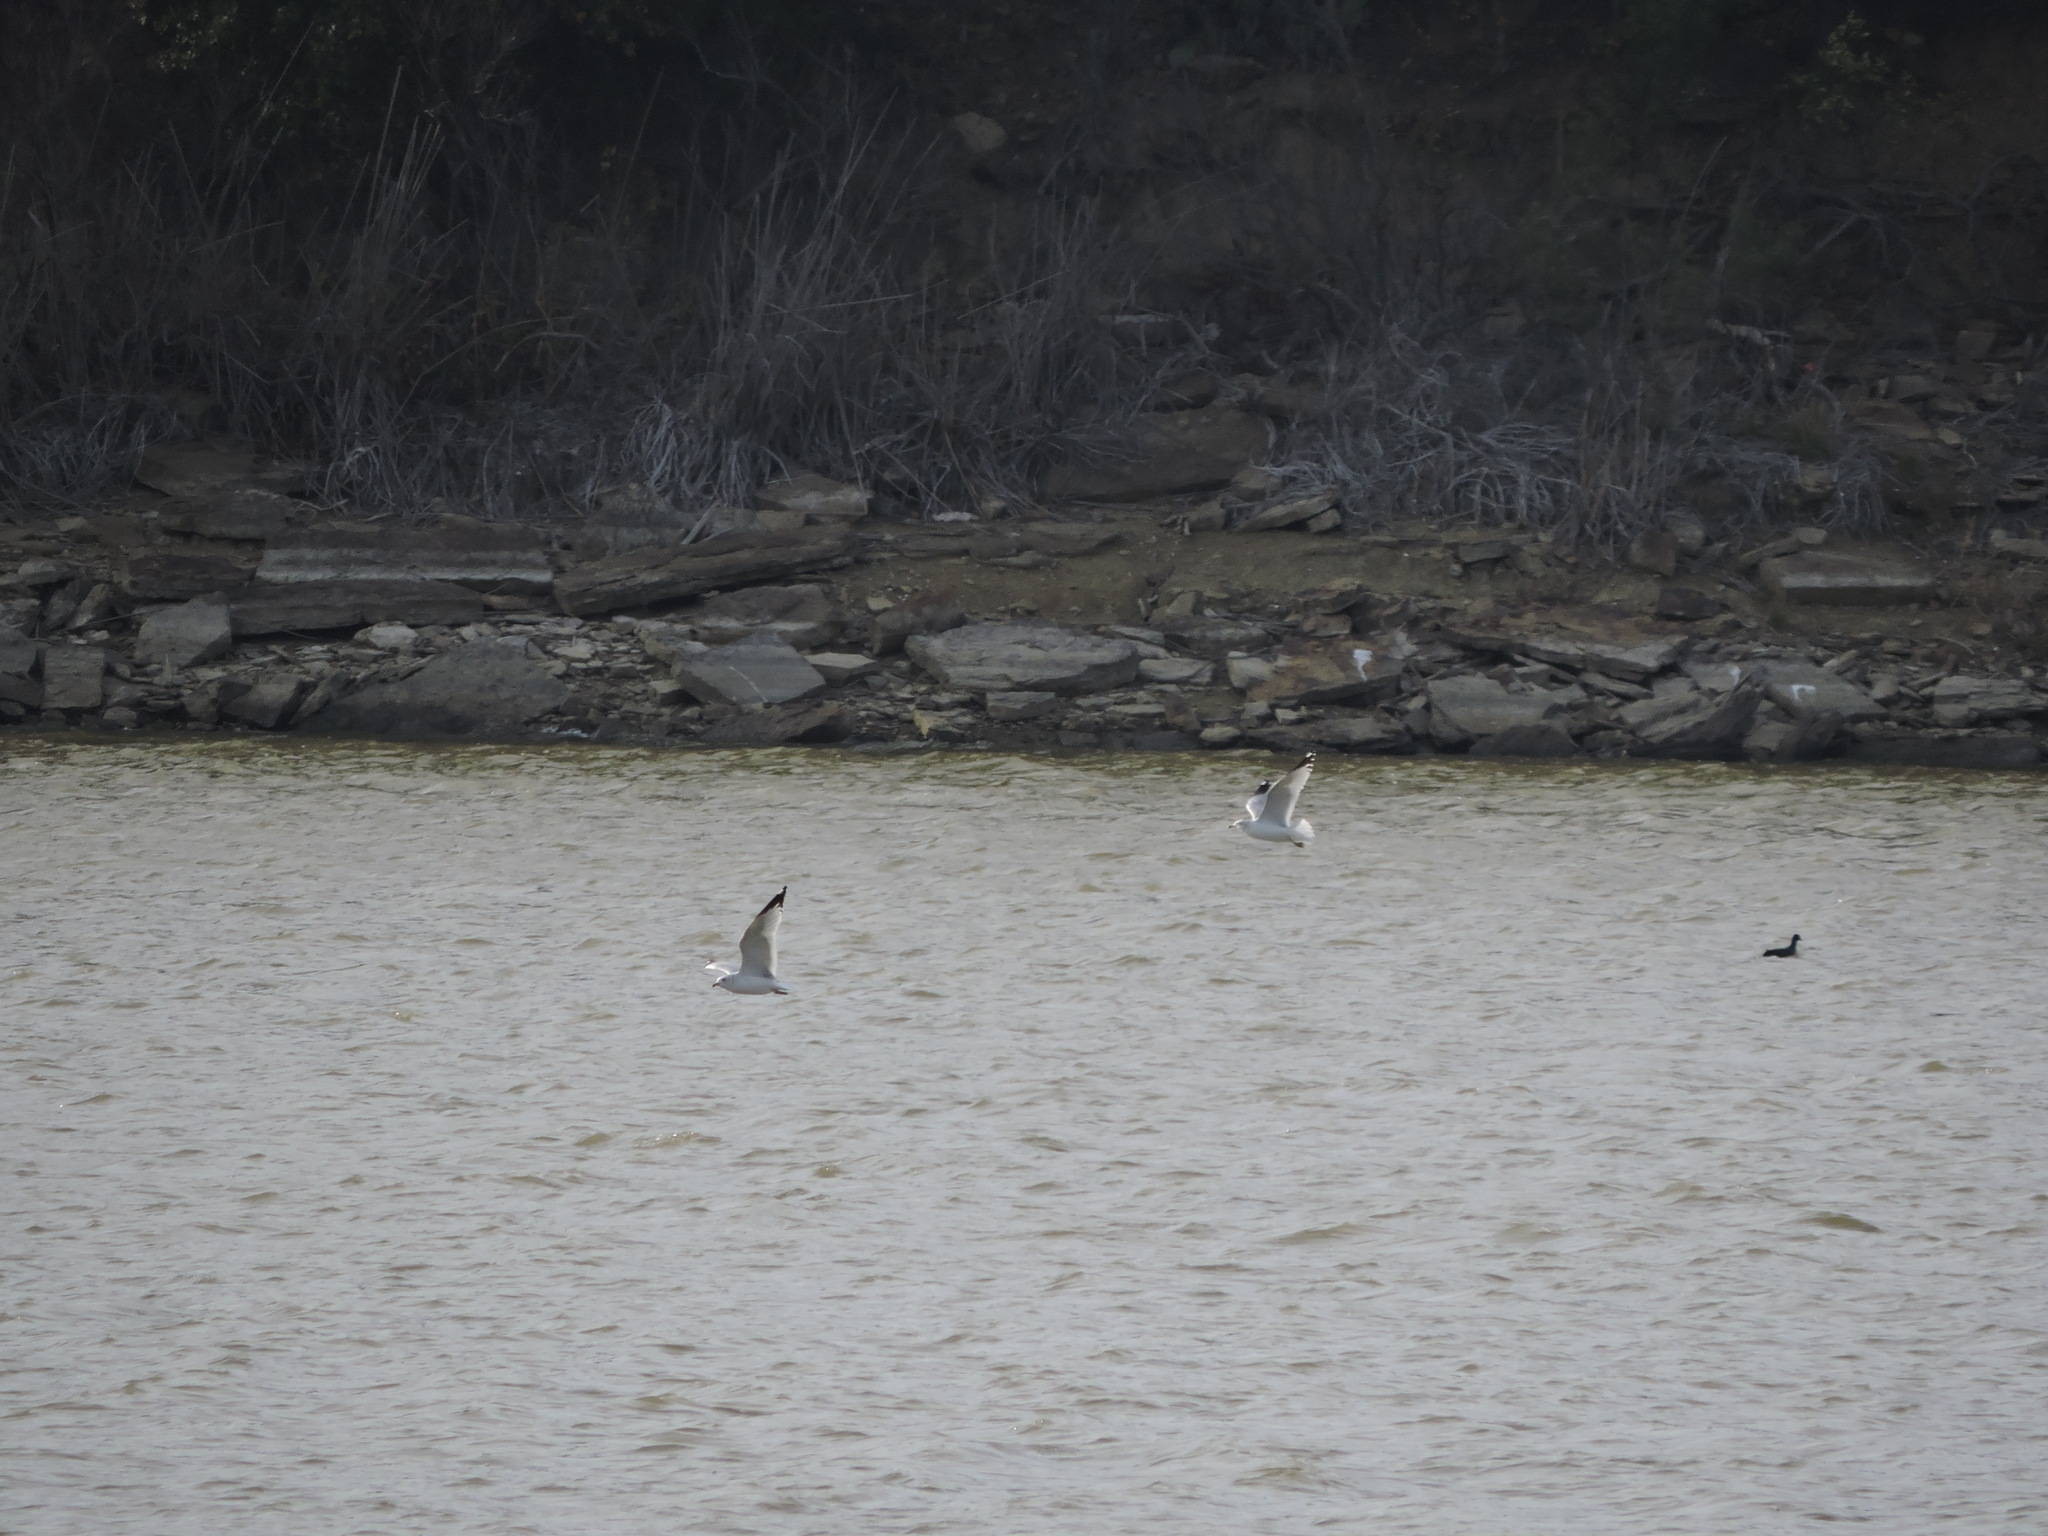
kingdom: Animalia
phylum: Chordata
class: Aves
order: Charadriiformes
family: Laridae
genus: Larus
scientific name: Larus delawarensis
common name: Ring-billed gull
